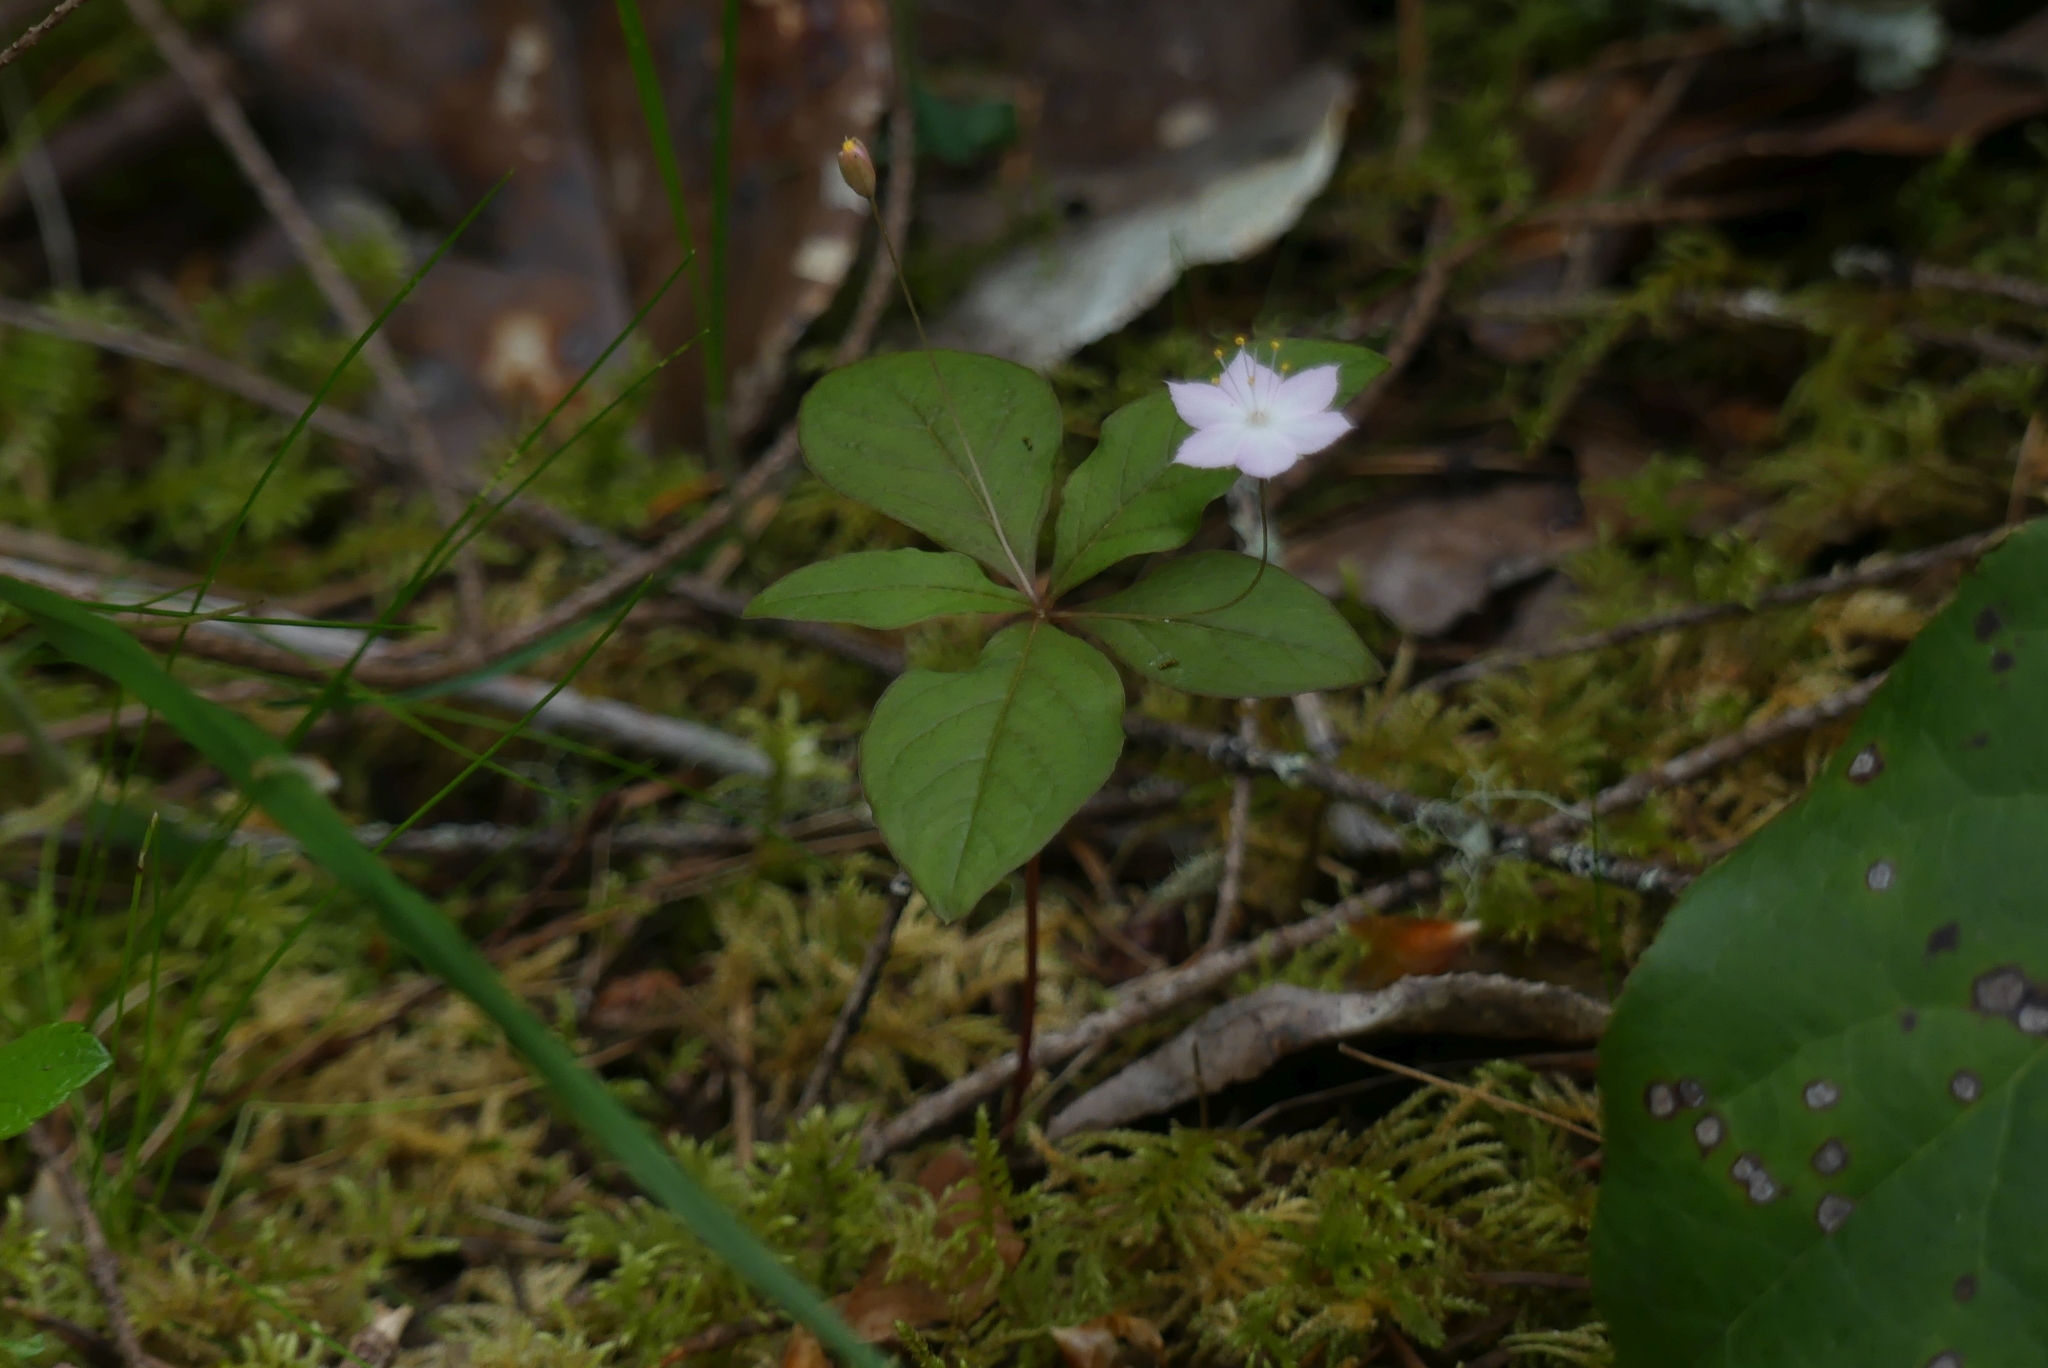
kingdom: Plantae
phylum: Tracheophyta
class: Magnoliopsida
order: Ericales
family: Primulaceae
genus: Lysimachia
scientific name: Lysimachia latifolia
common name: Pacific starflower
